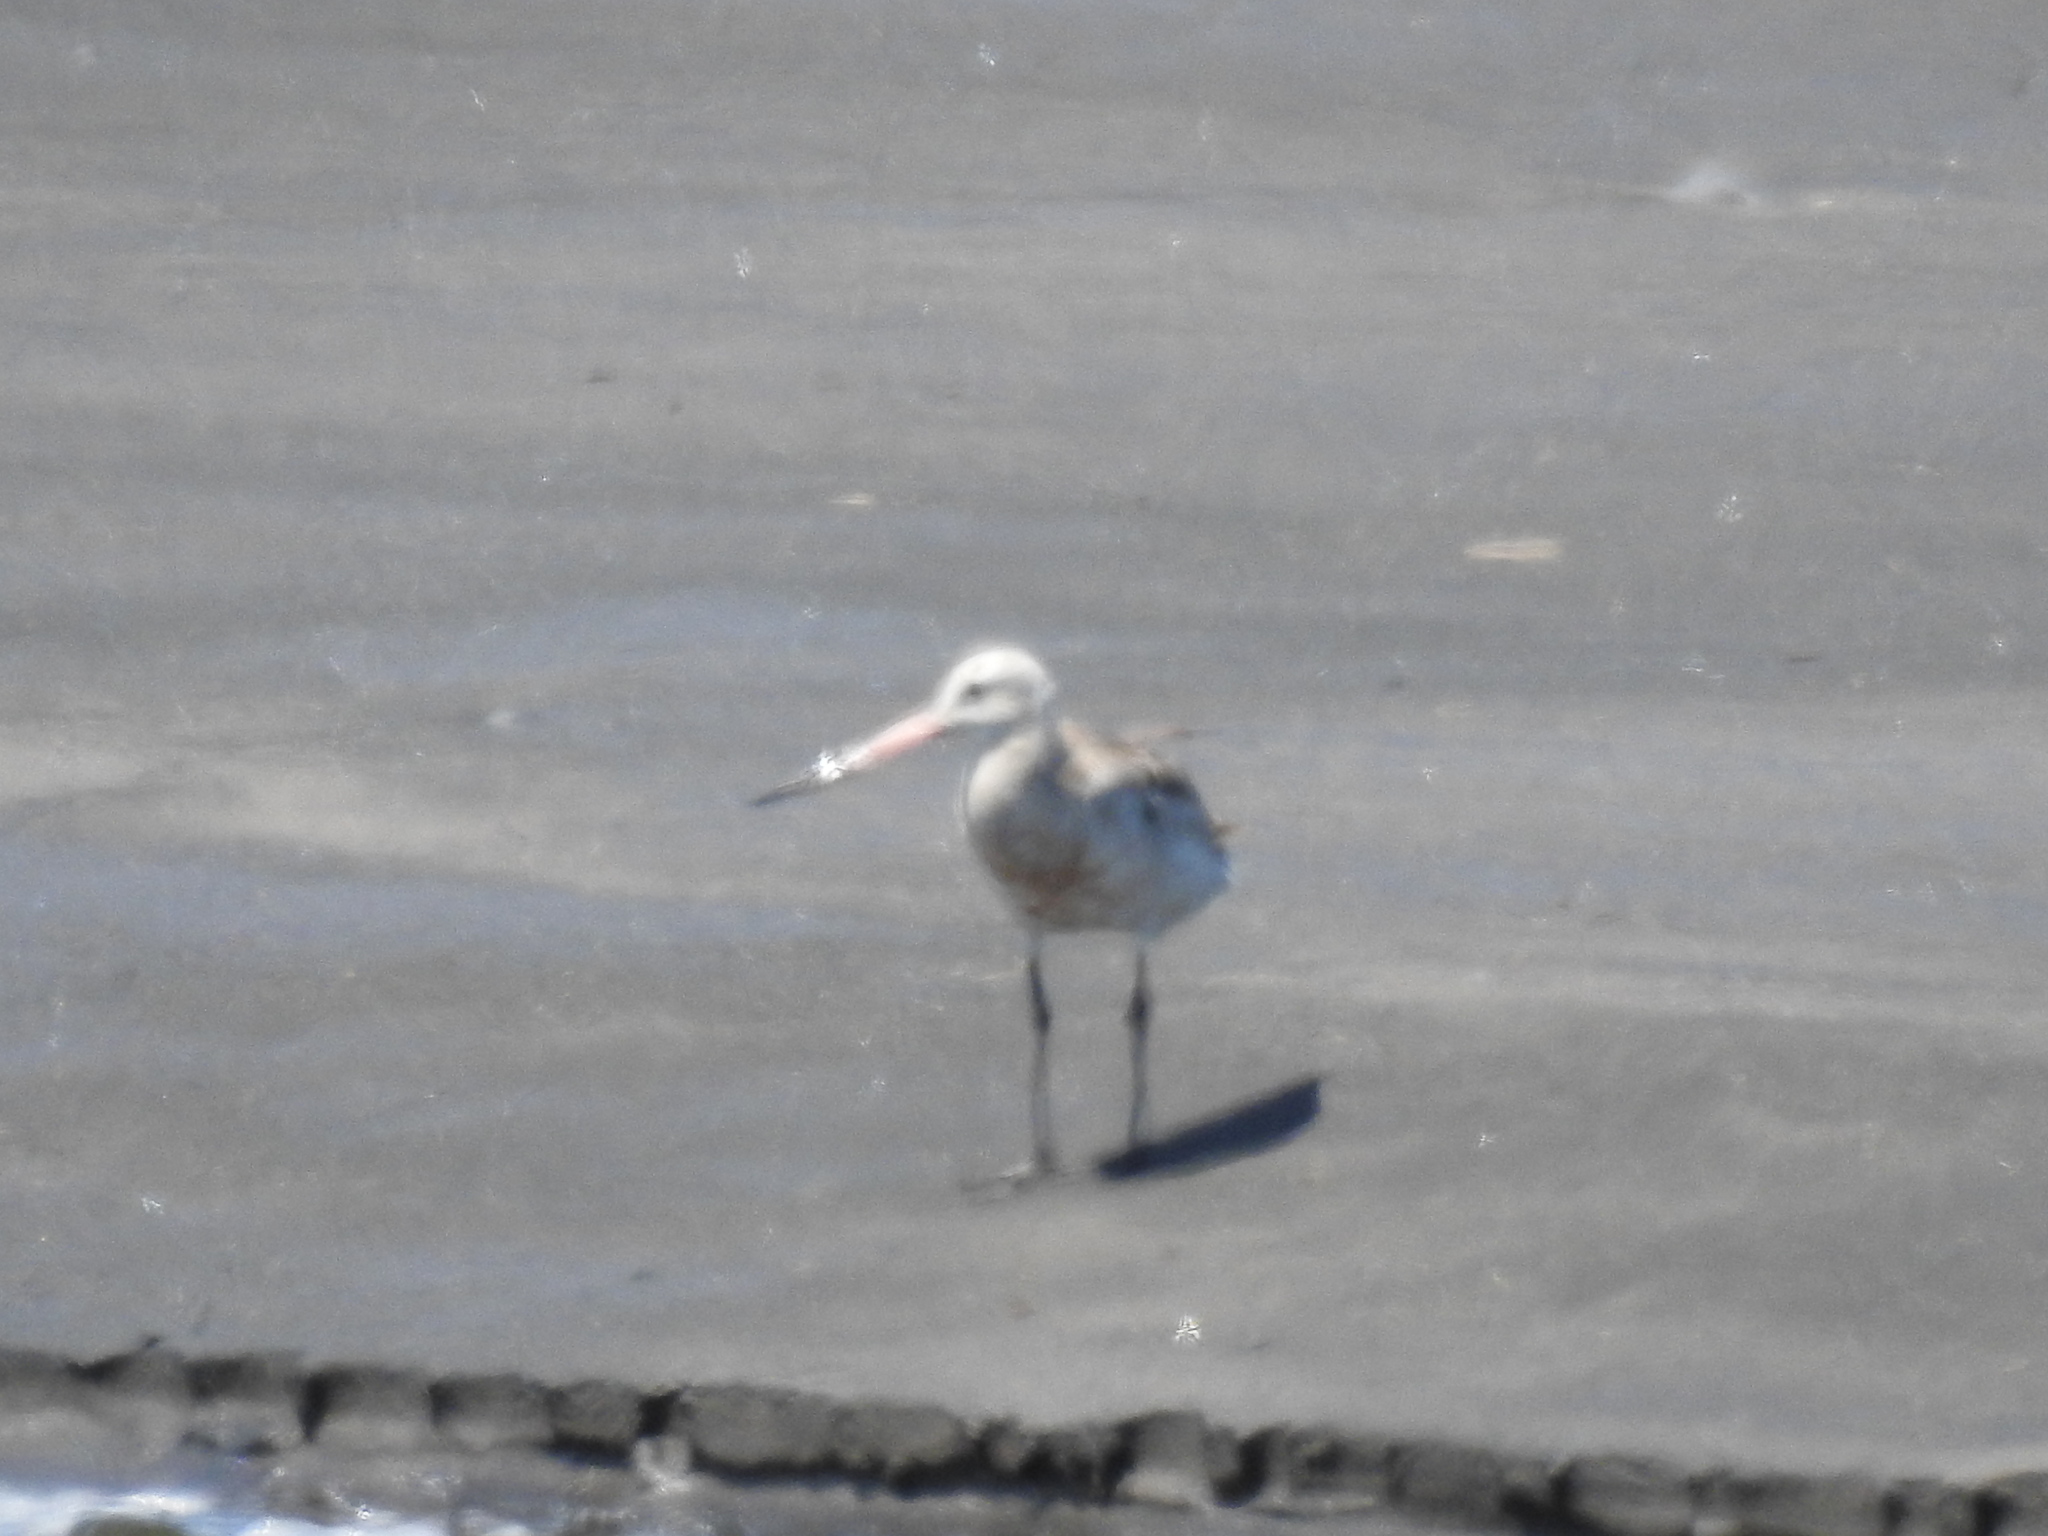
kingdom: Animalia
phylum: Chordata
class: Aves
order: Charadriiformes
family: Scolopacidae
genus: Limosa
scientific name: Limosa lapponica
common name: Bar-tailed godwit
